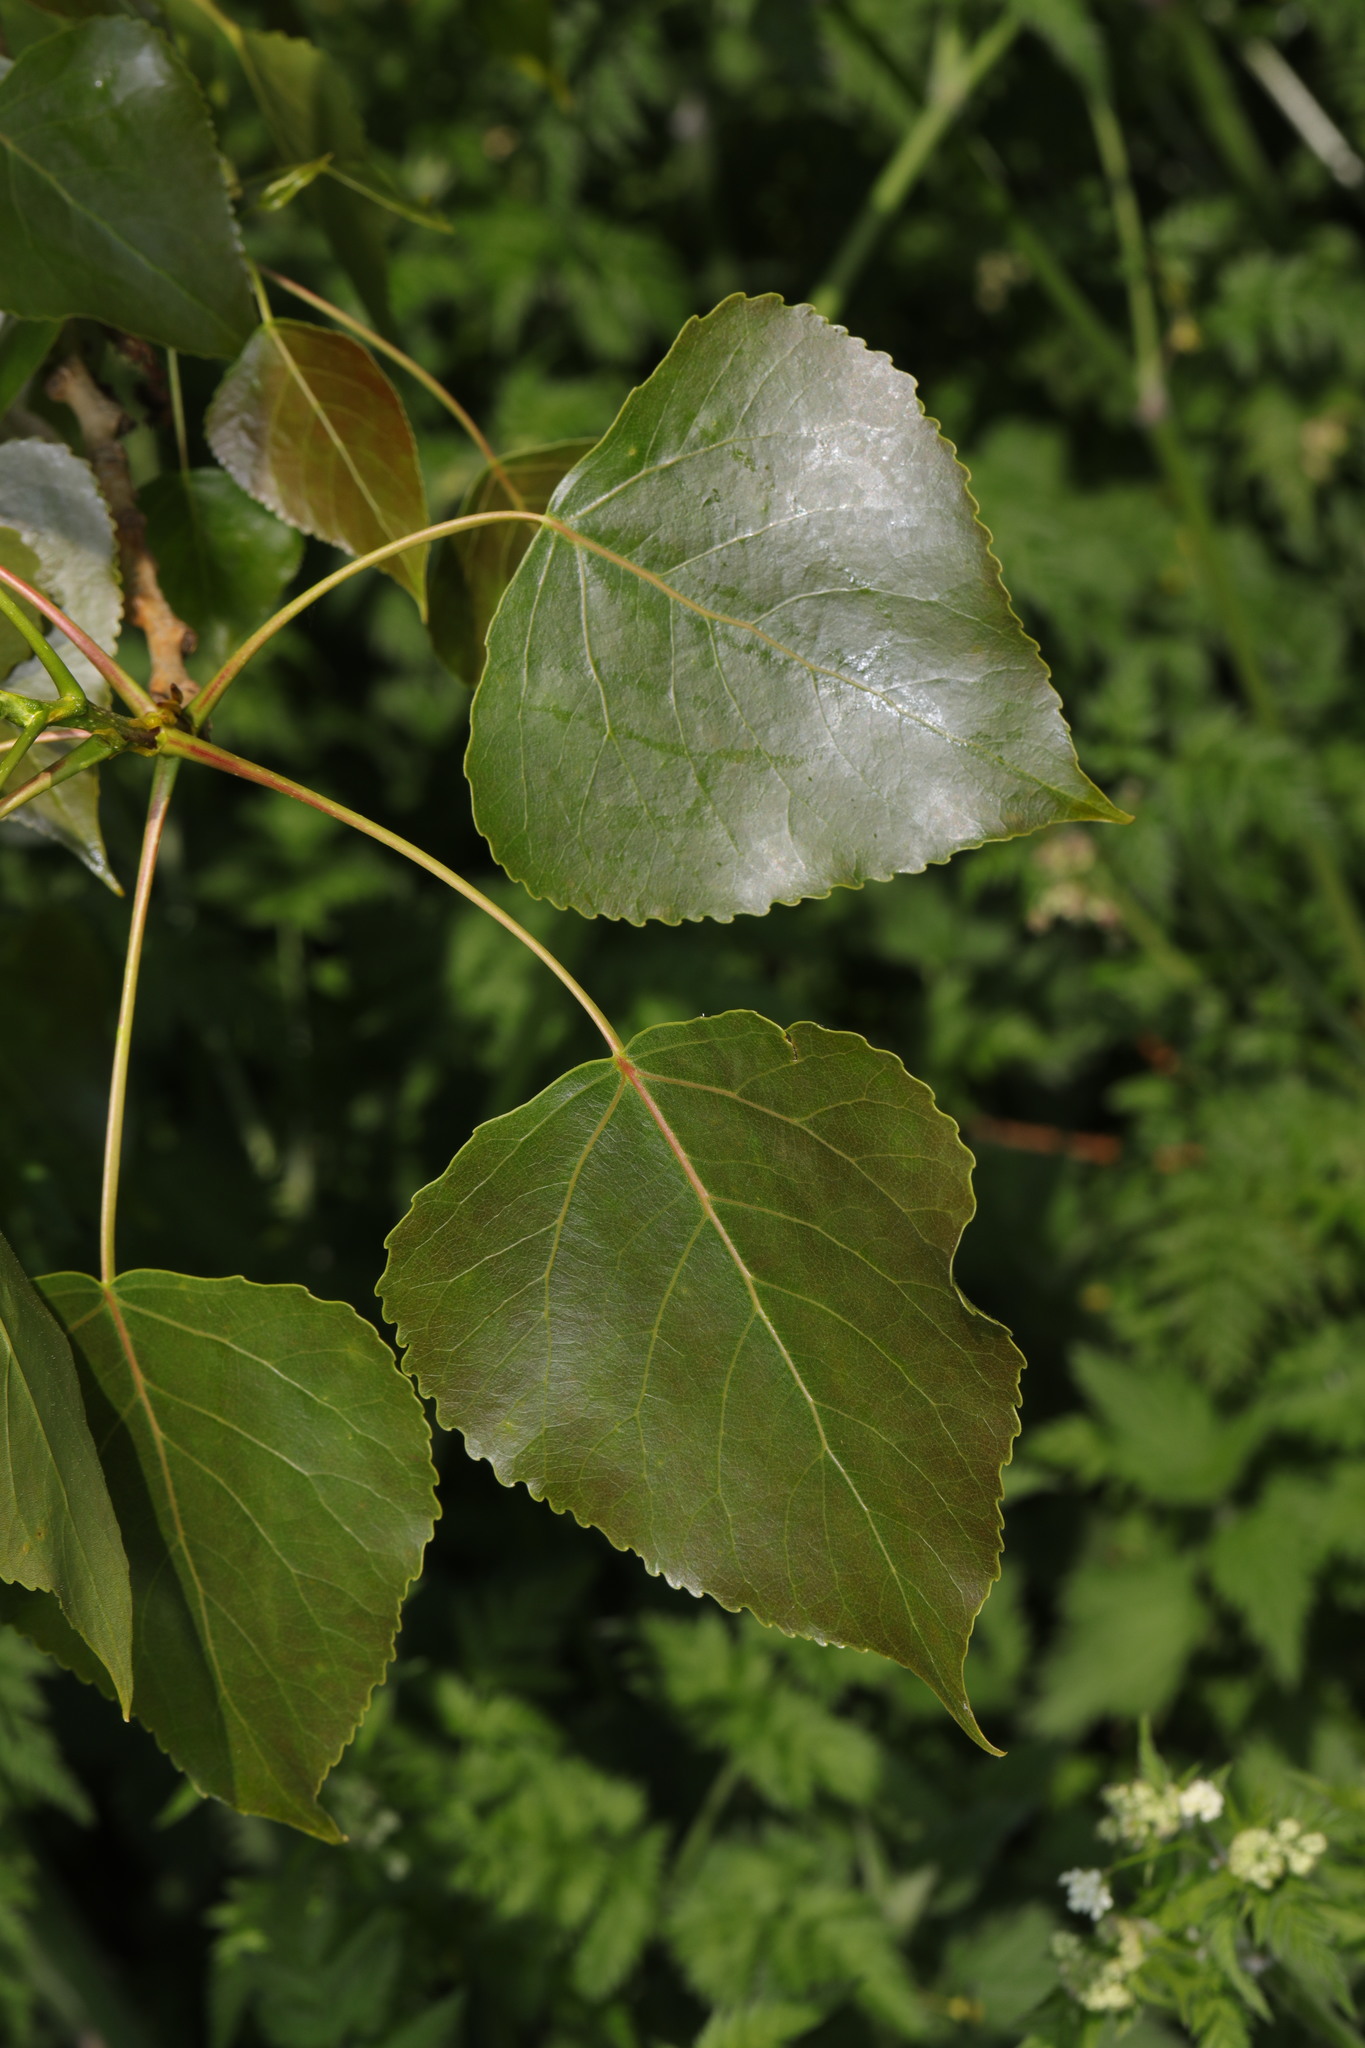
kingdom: Plantae
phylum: Tracheophyta
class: Magnoliopsida
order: Malpighiales
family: Salicaceae
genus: Populus
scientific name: Populus nigra
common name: Black poplar
